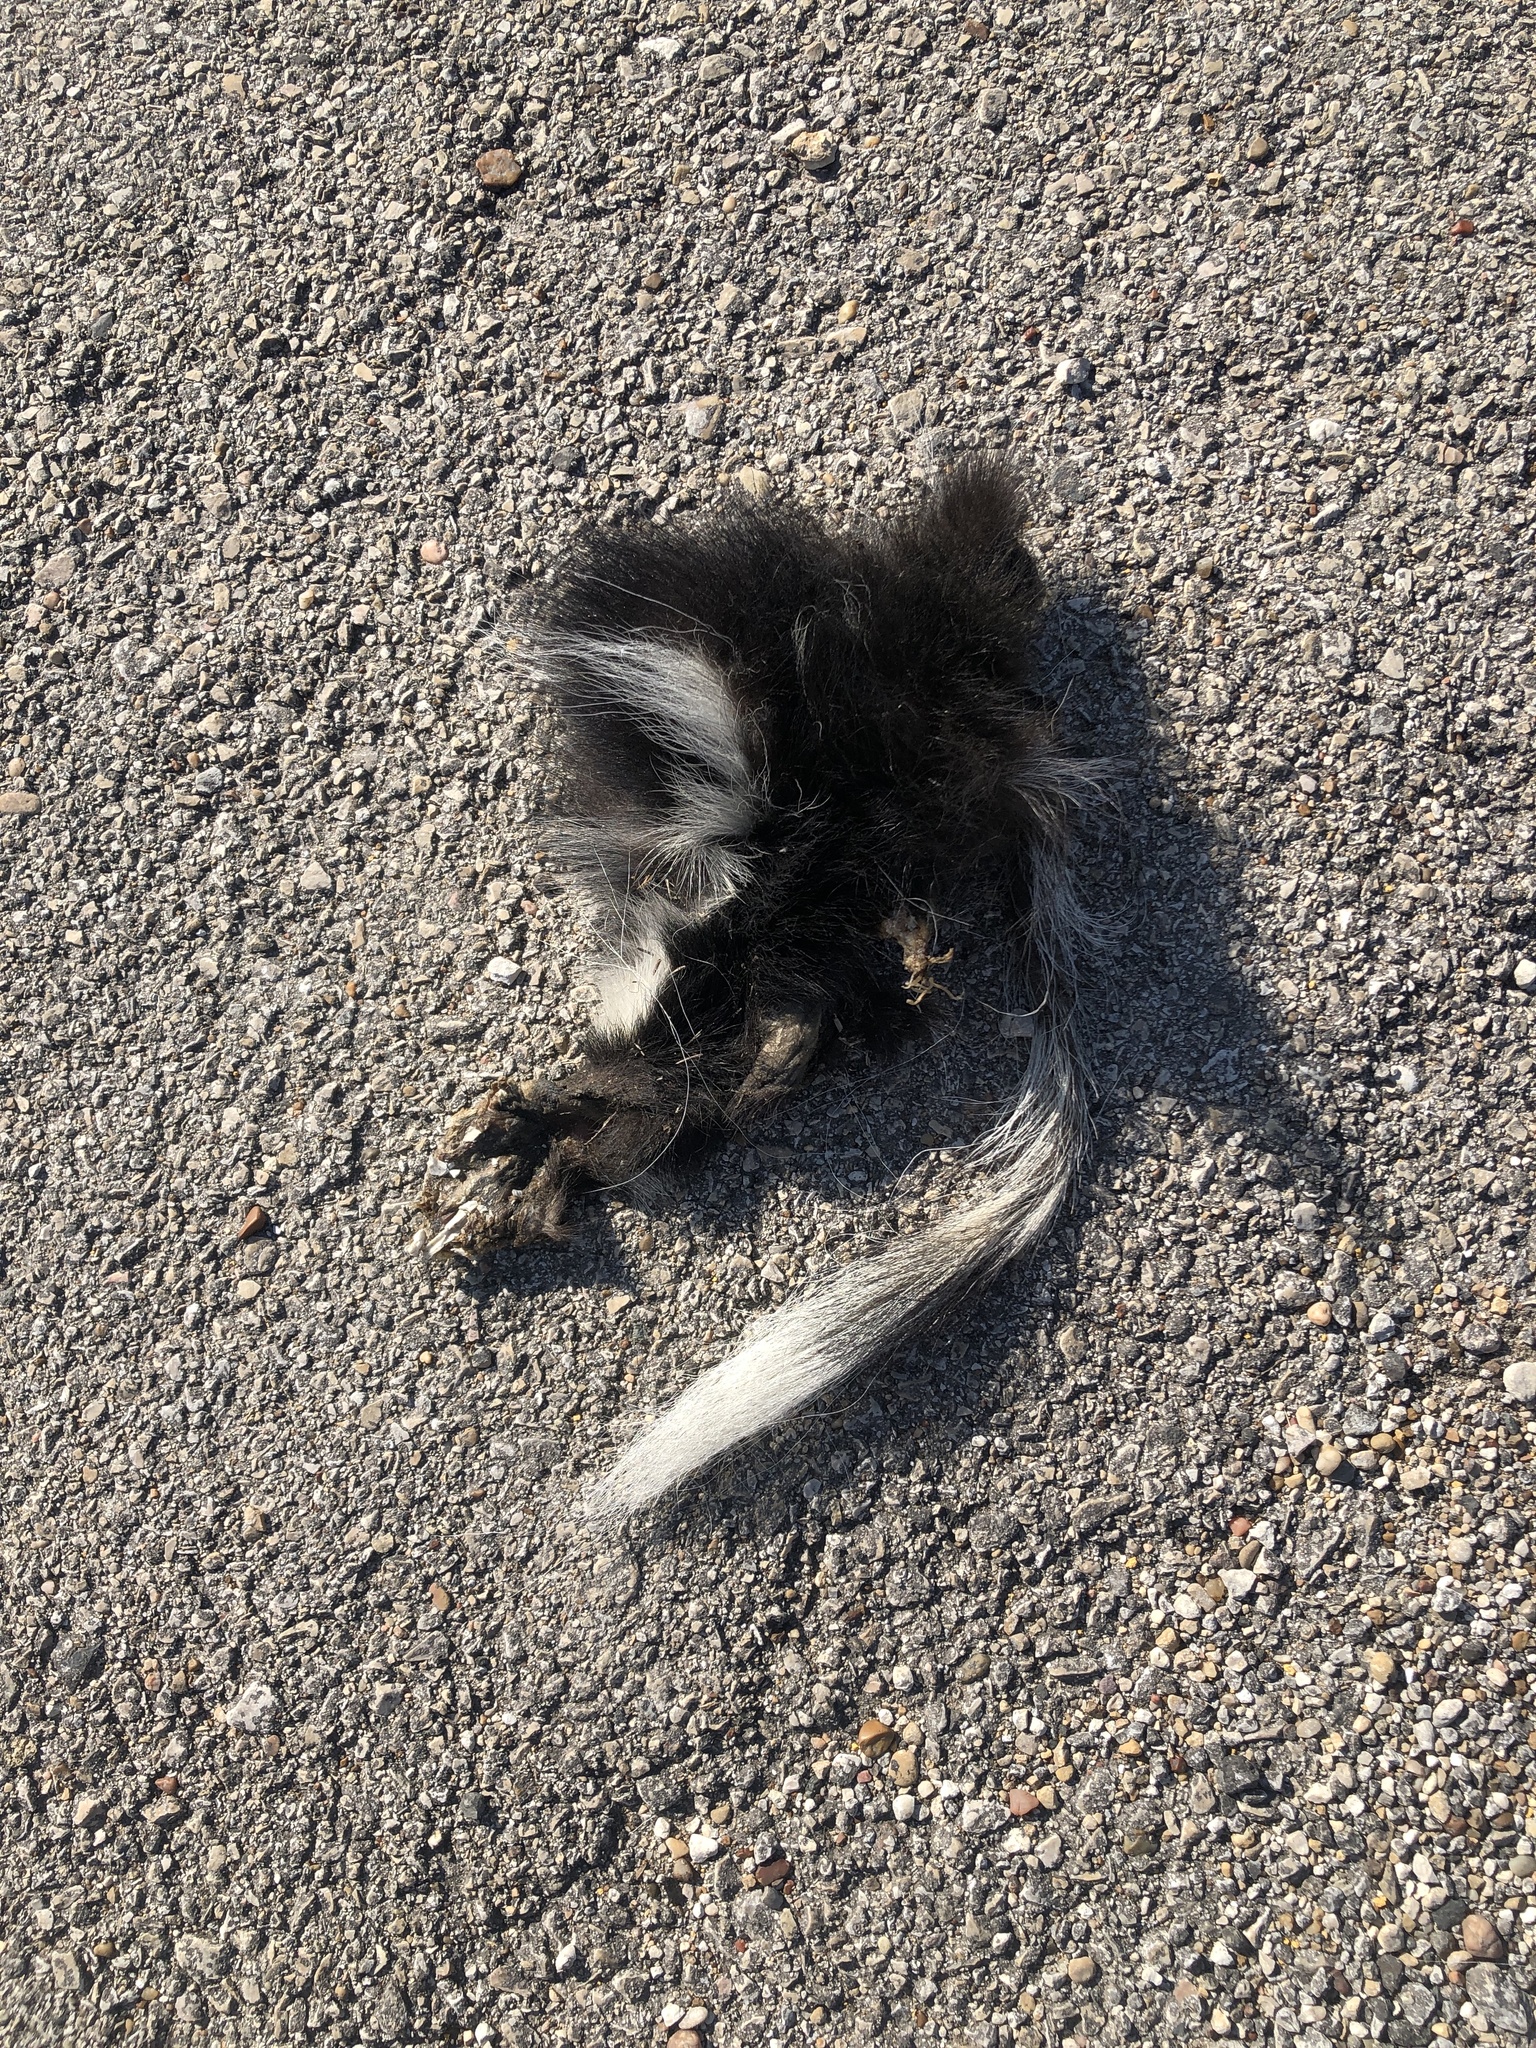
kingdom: Animalia
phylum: Chordata
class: Mammalia
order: Carnivora
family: Mephitidae
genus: Mephitis
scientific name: Mephitis mephitis
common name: Striped skunk
